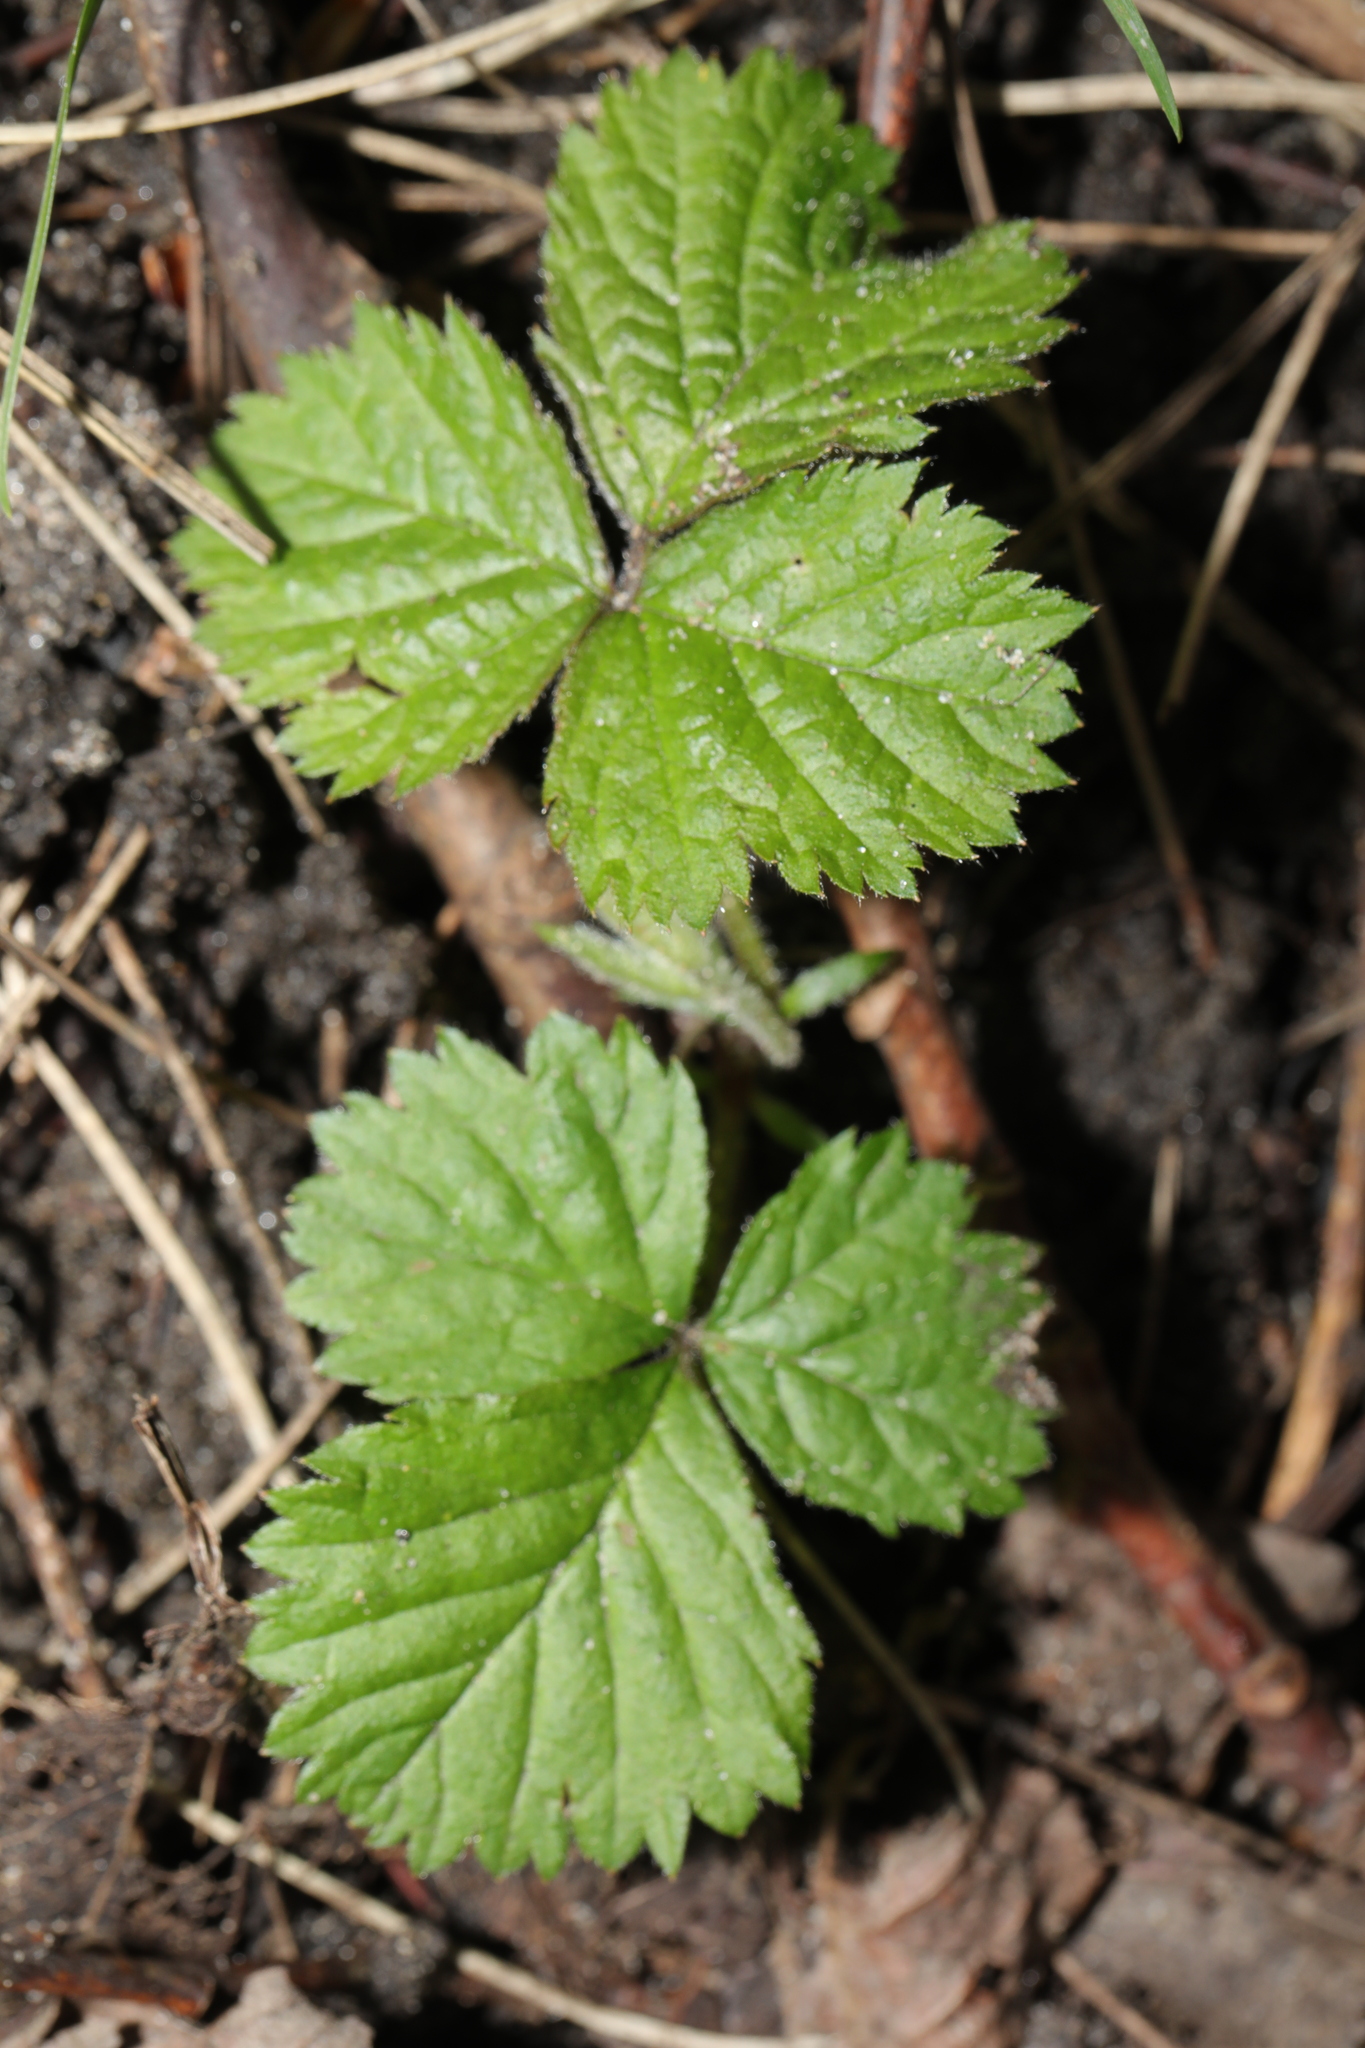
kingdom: Plantae
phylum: Tracheophyta
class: Magnoliopsida
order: Rosales
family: Rosaceae
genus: Rubus
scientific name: Rubus fruticosus
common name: Blackberry, bramble
